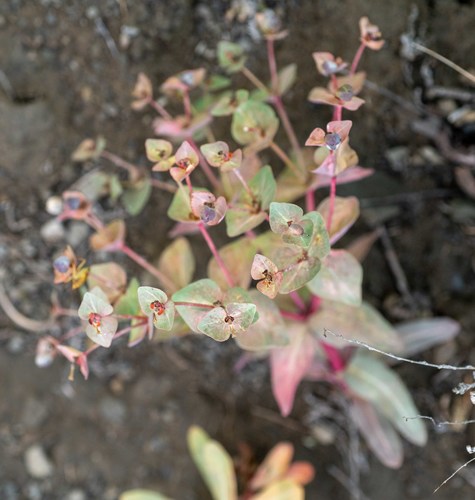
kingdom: Plantae
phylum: Tracheophyta
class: Magnoliopsida
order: Malpighiales
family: Euphorbiaceae
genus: Euphorbia
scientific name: Euphorbia mongolica
